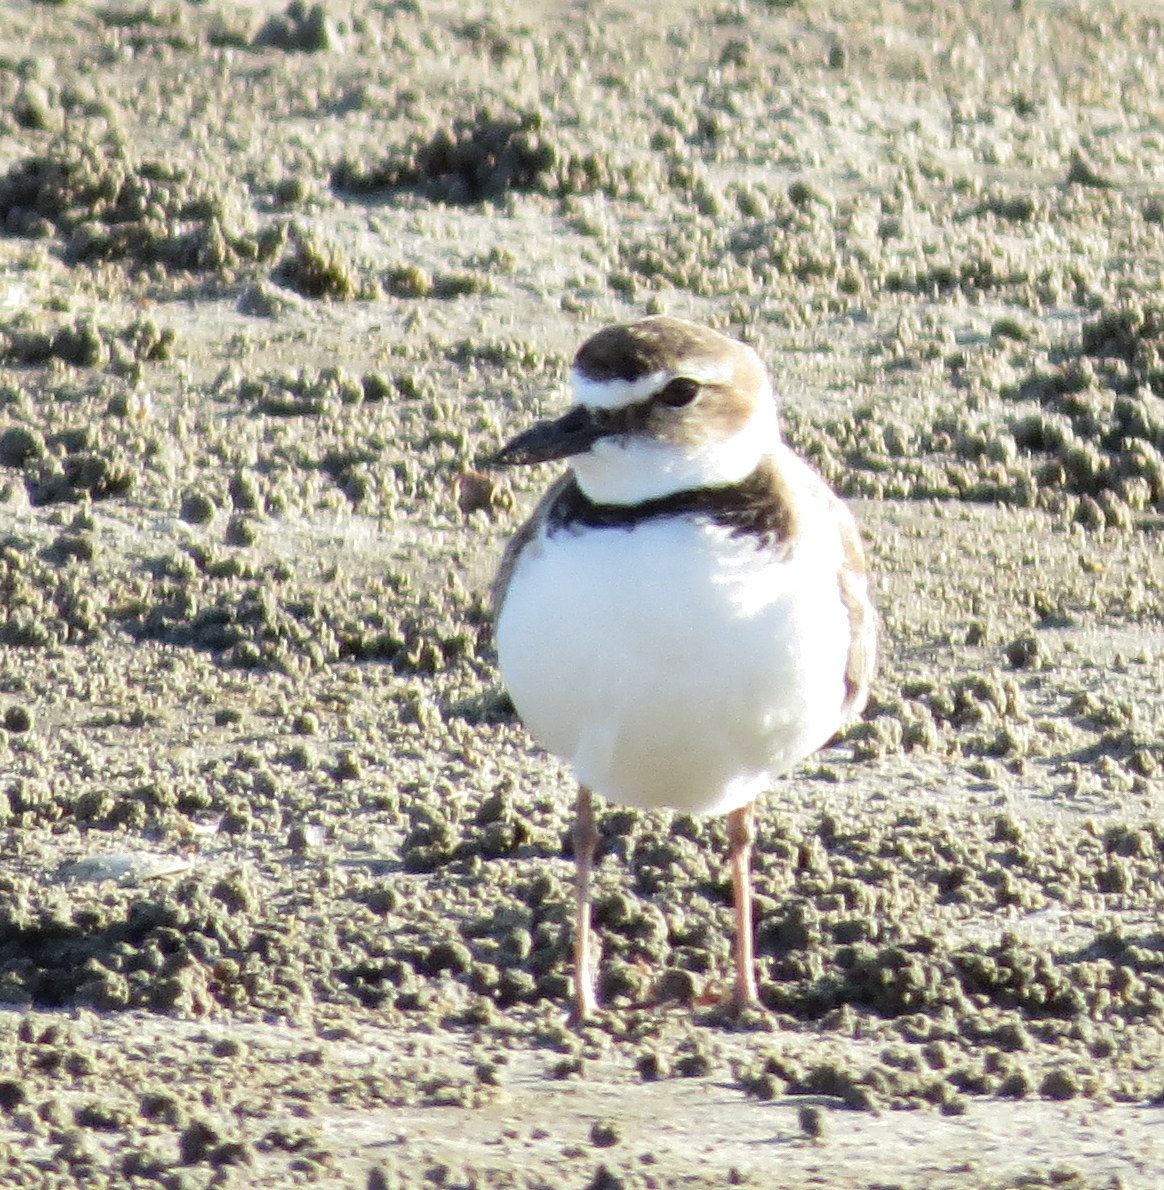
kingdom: Animalia
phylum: Chordata
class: Aves
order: Charadriiformes
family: Charadriidae
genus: Anarhynchus
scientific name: Anarhynchus
